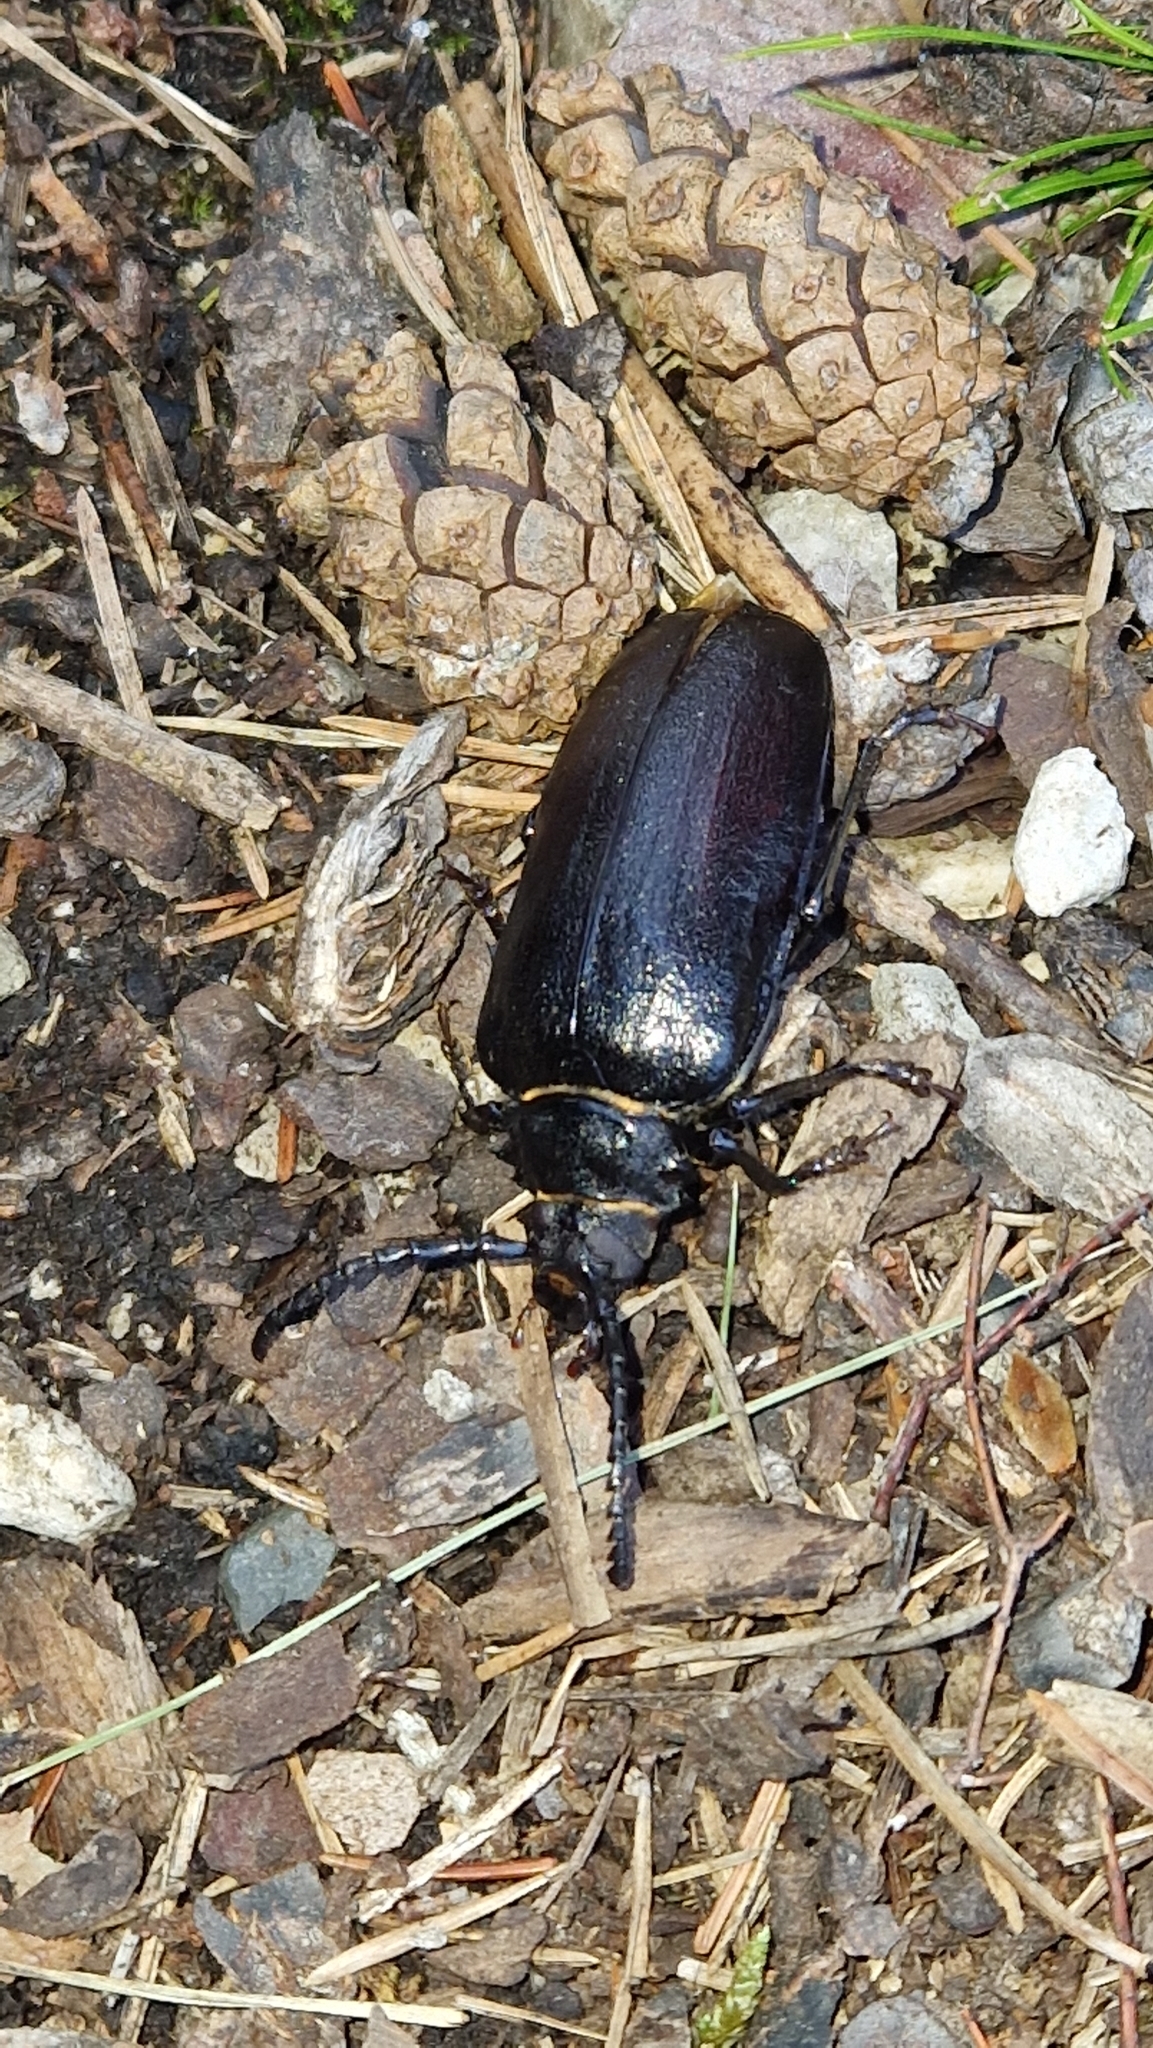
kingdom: Animalia
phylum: Arthropoda
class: Insecta
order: Coleoptera
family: Cerambycidae
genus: Prionus
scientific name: Prionus coriarius
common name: Tanner beetle
